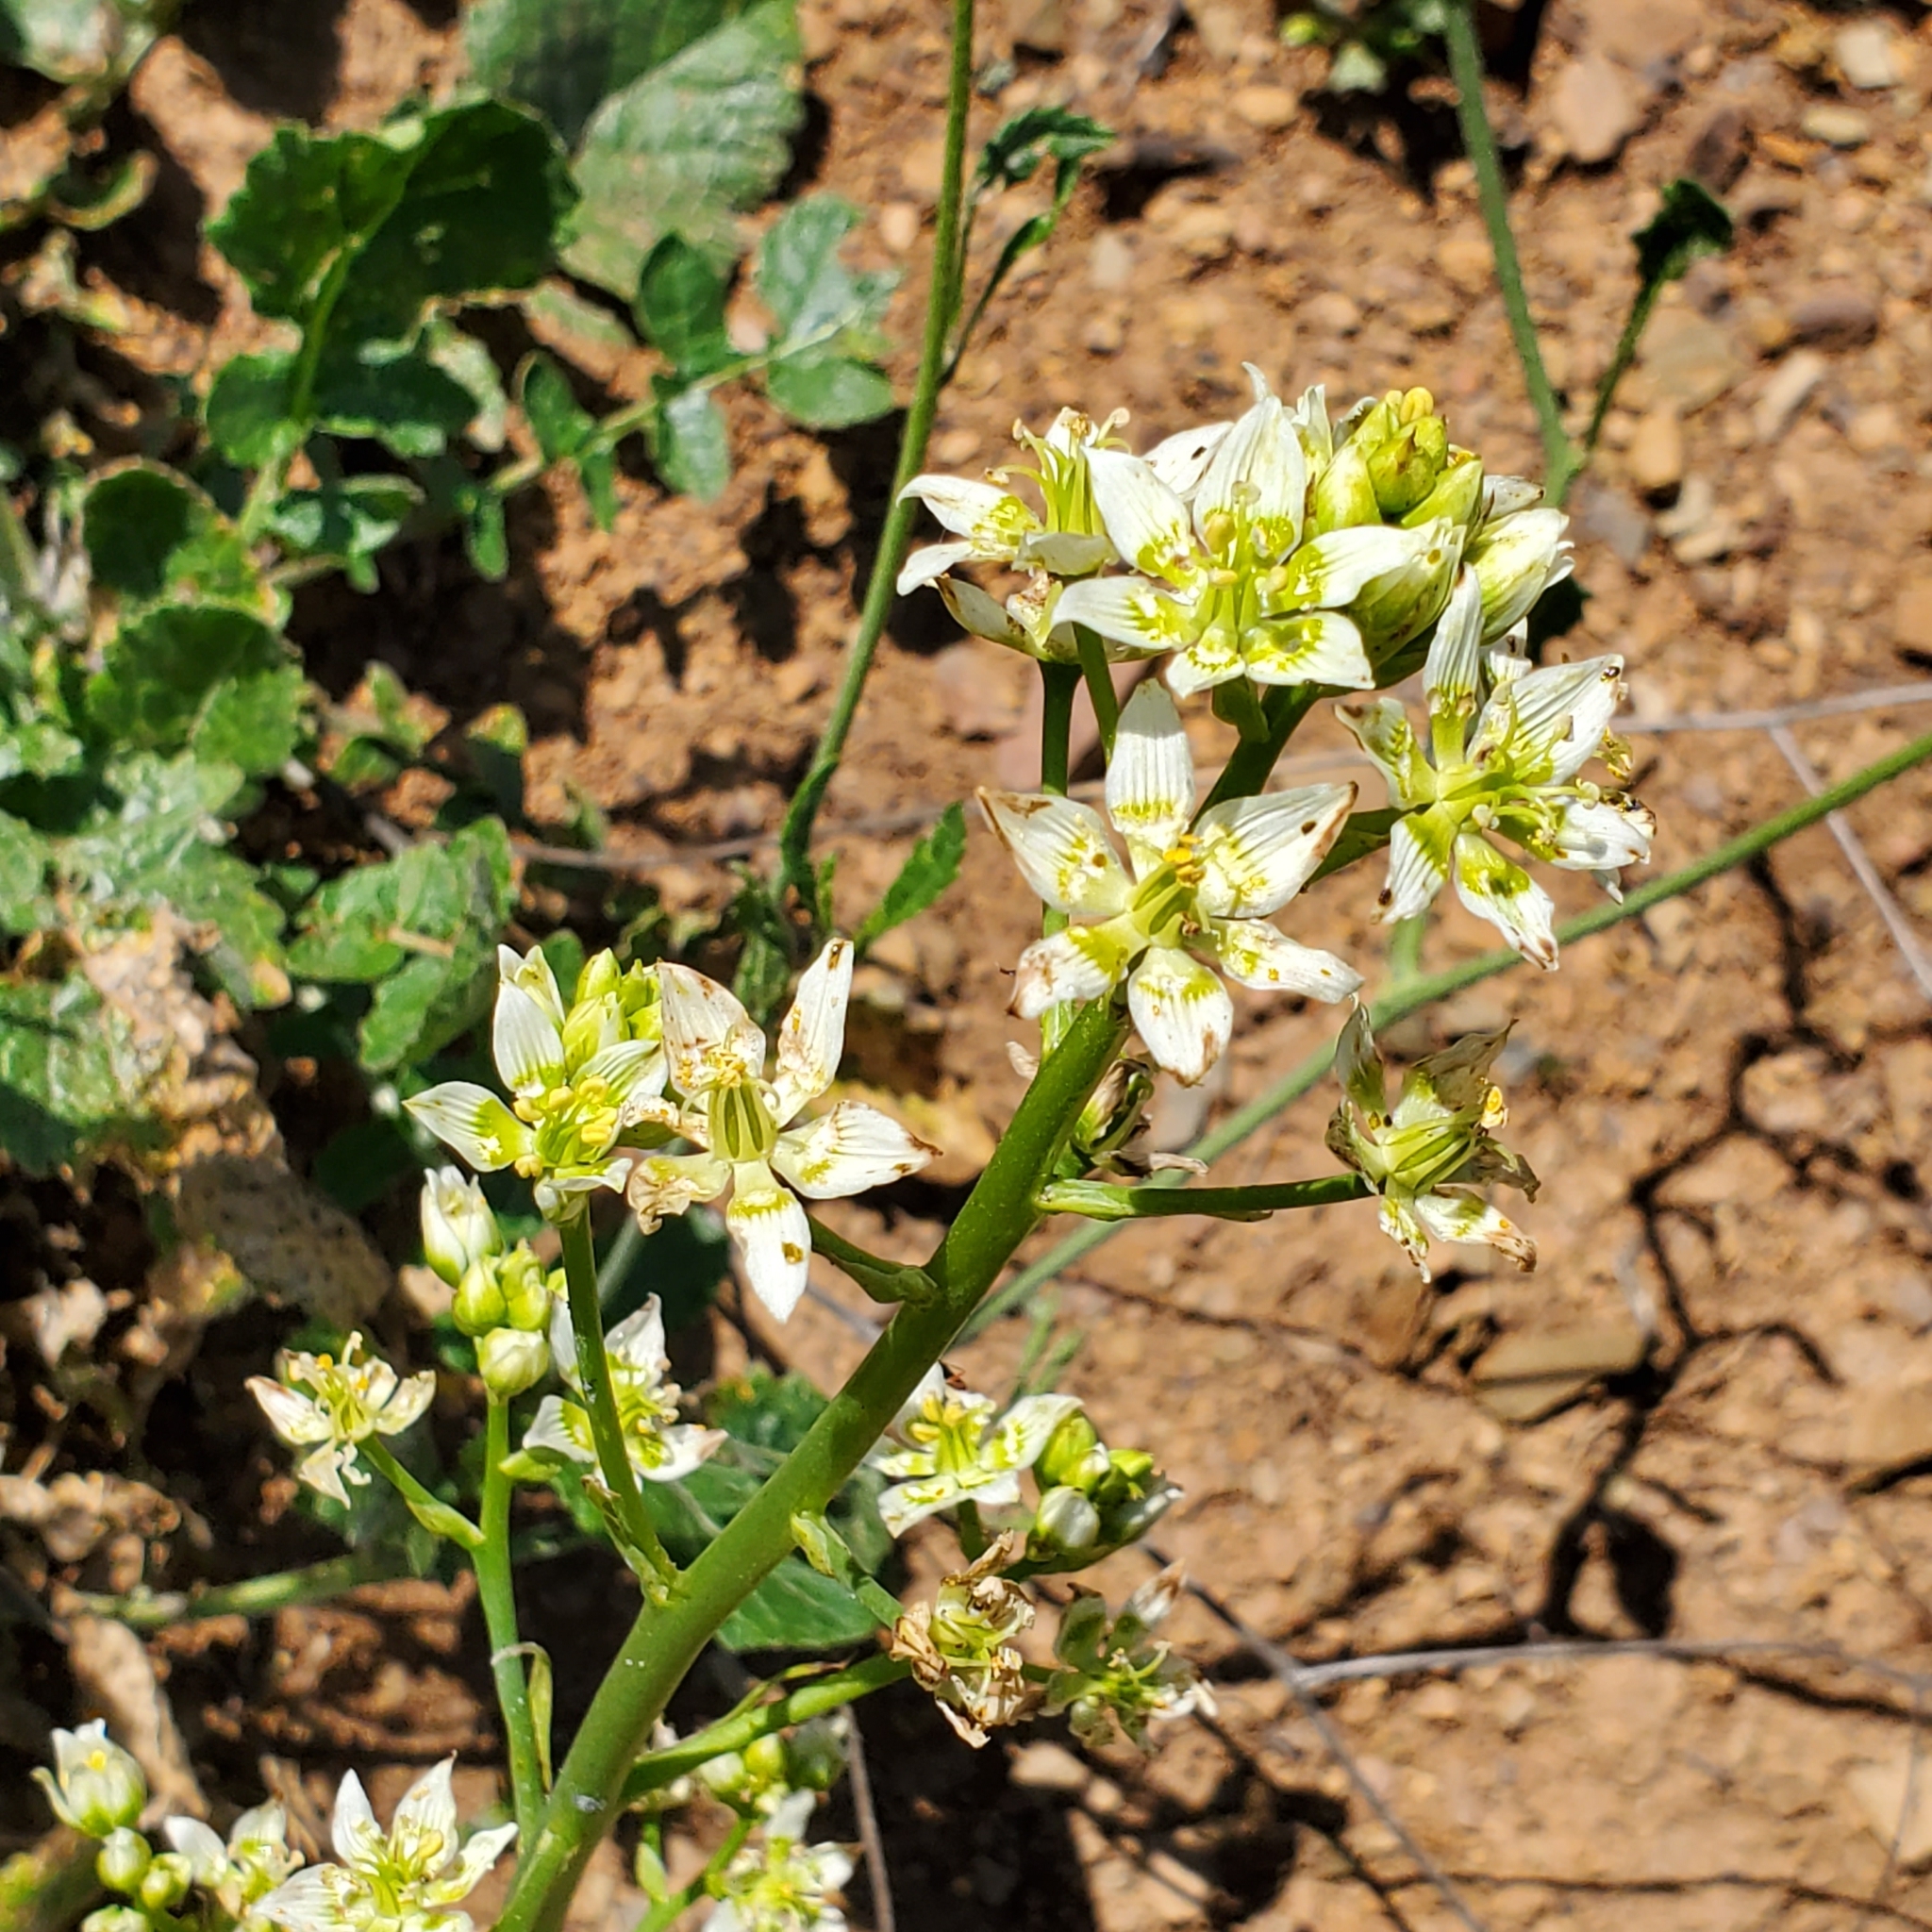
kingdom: Plantae
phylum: Tracheophyta
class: Liliopsida
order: Liliales
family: Melanthiaceae
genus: Toxicoscordion
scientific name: Toxicoscordion fremontii
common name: Fremont's death camas
